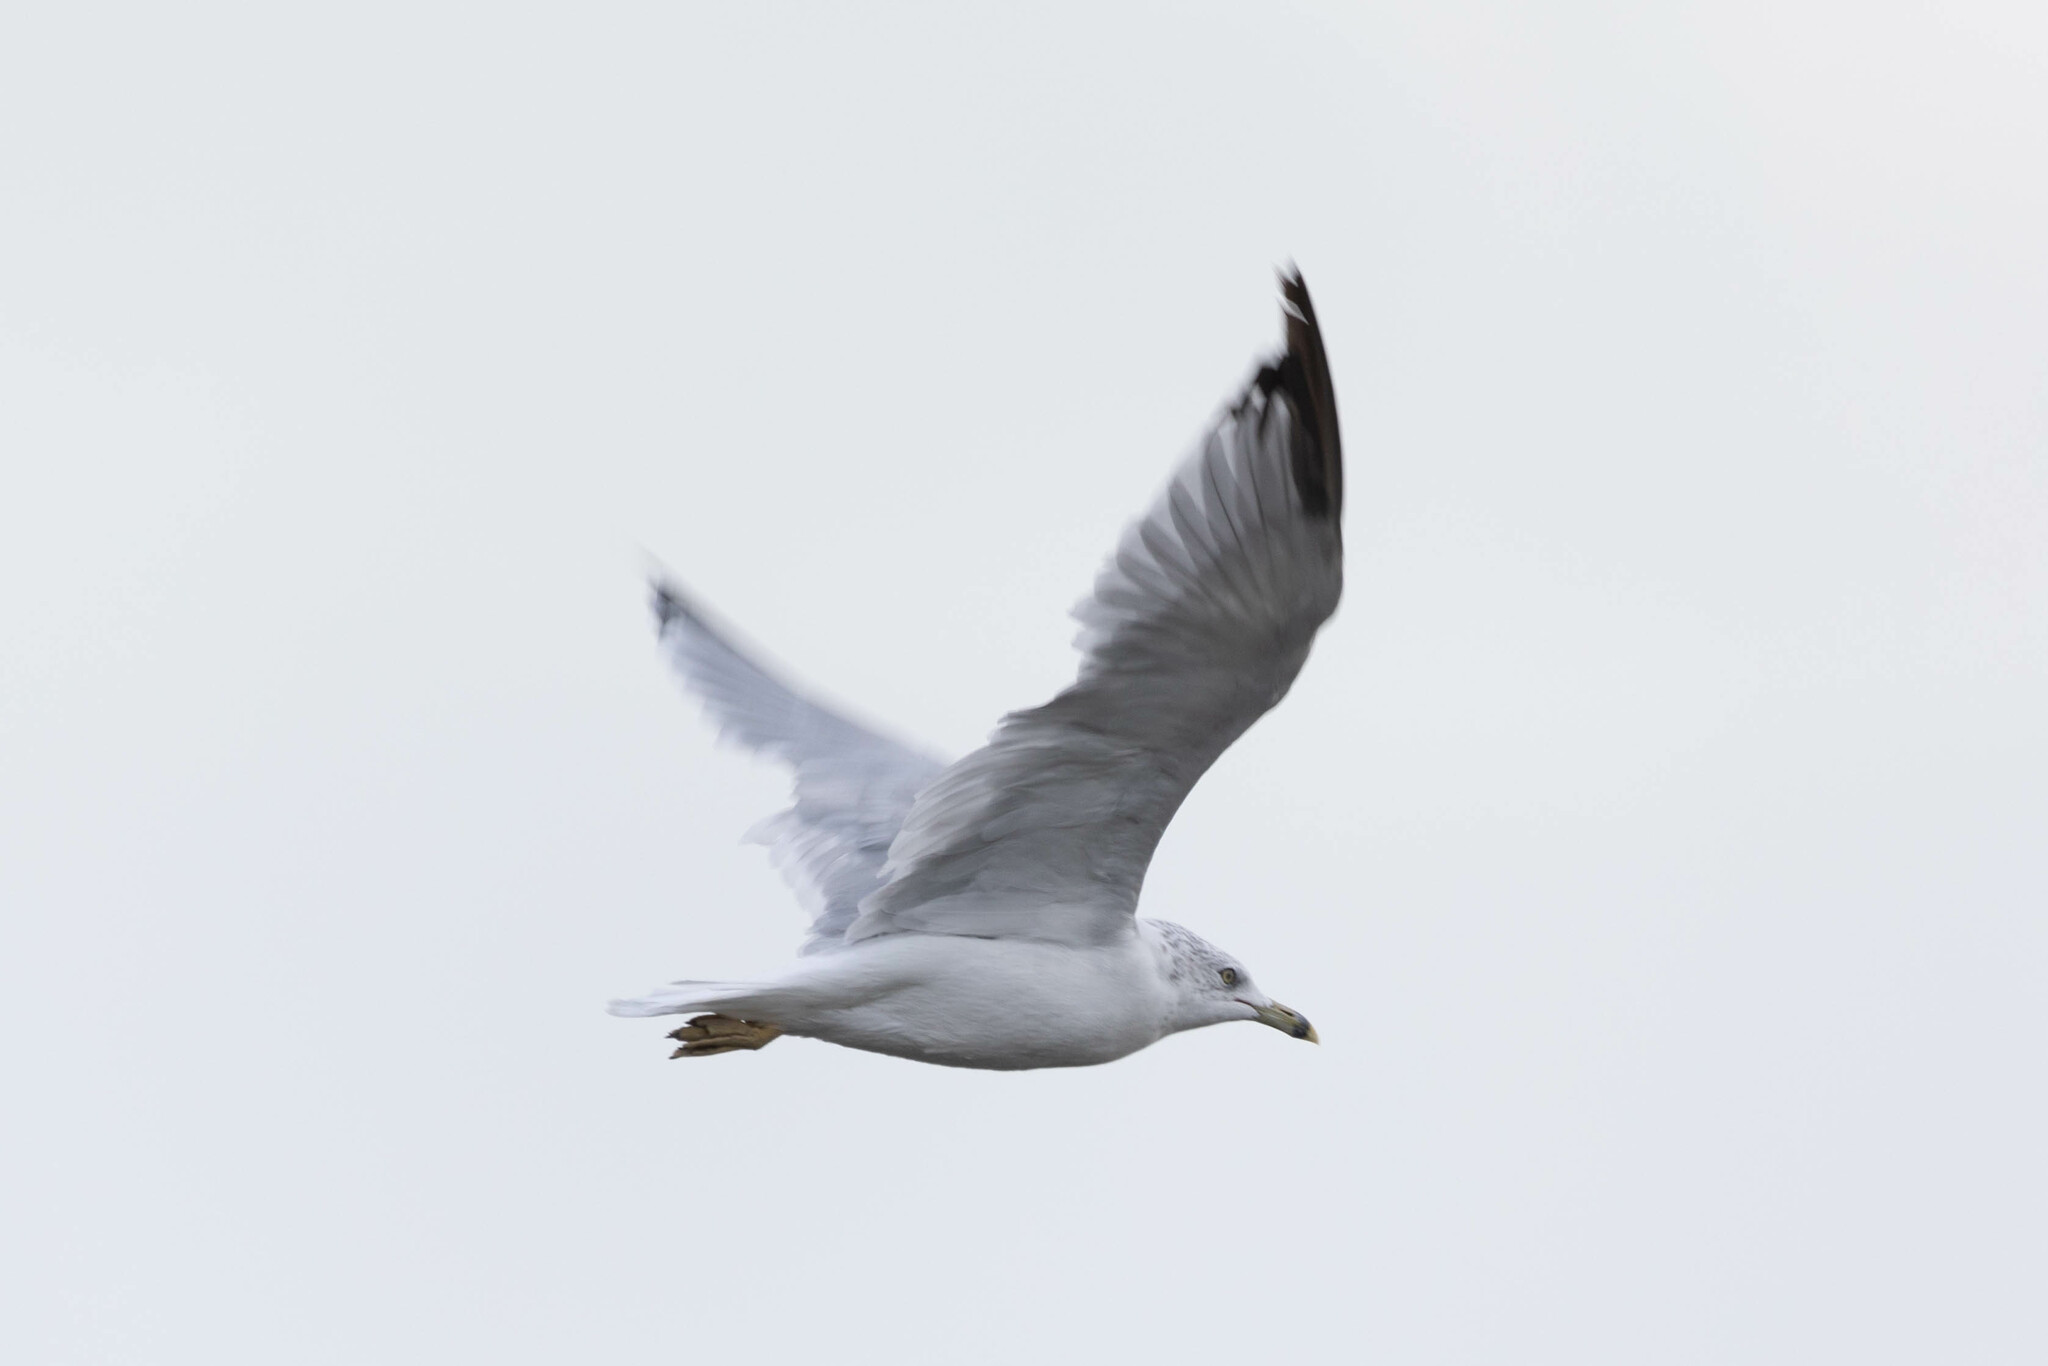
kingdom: Animalia
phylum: Chordata
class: Aves
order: Charadriiformes
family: Laridae
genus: Larus
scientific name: Larus delawarensis
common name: Ring-billed gull
